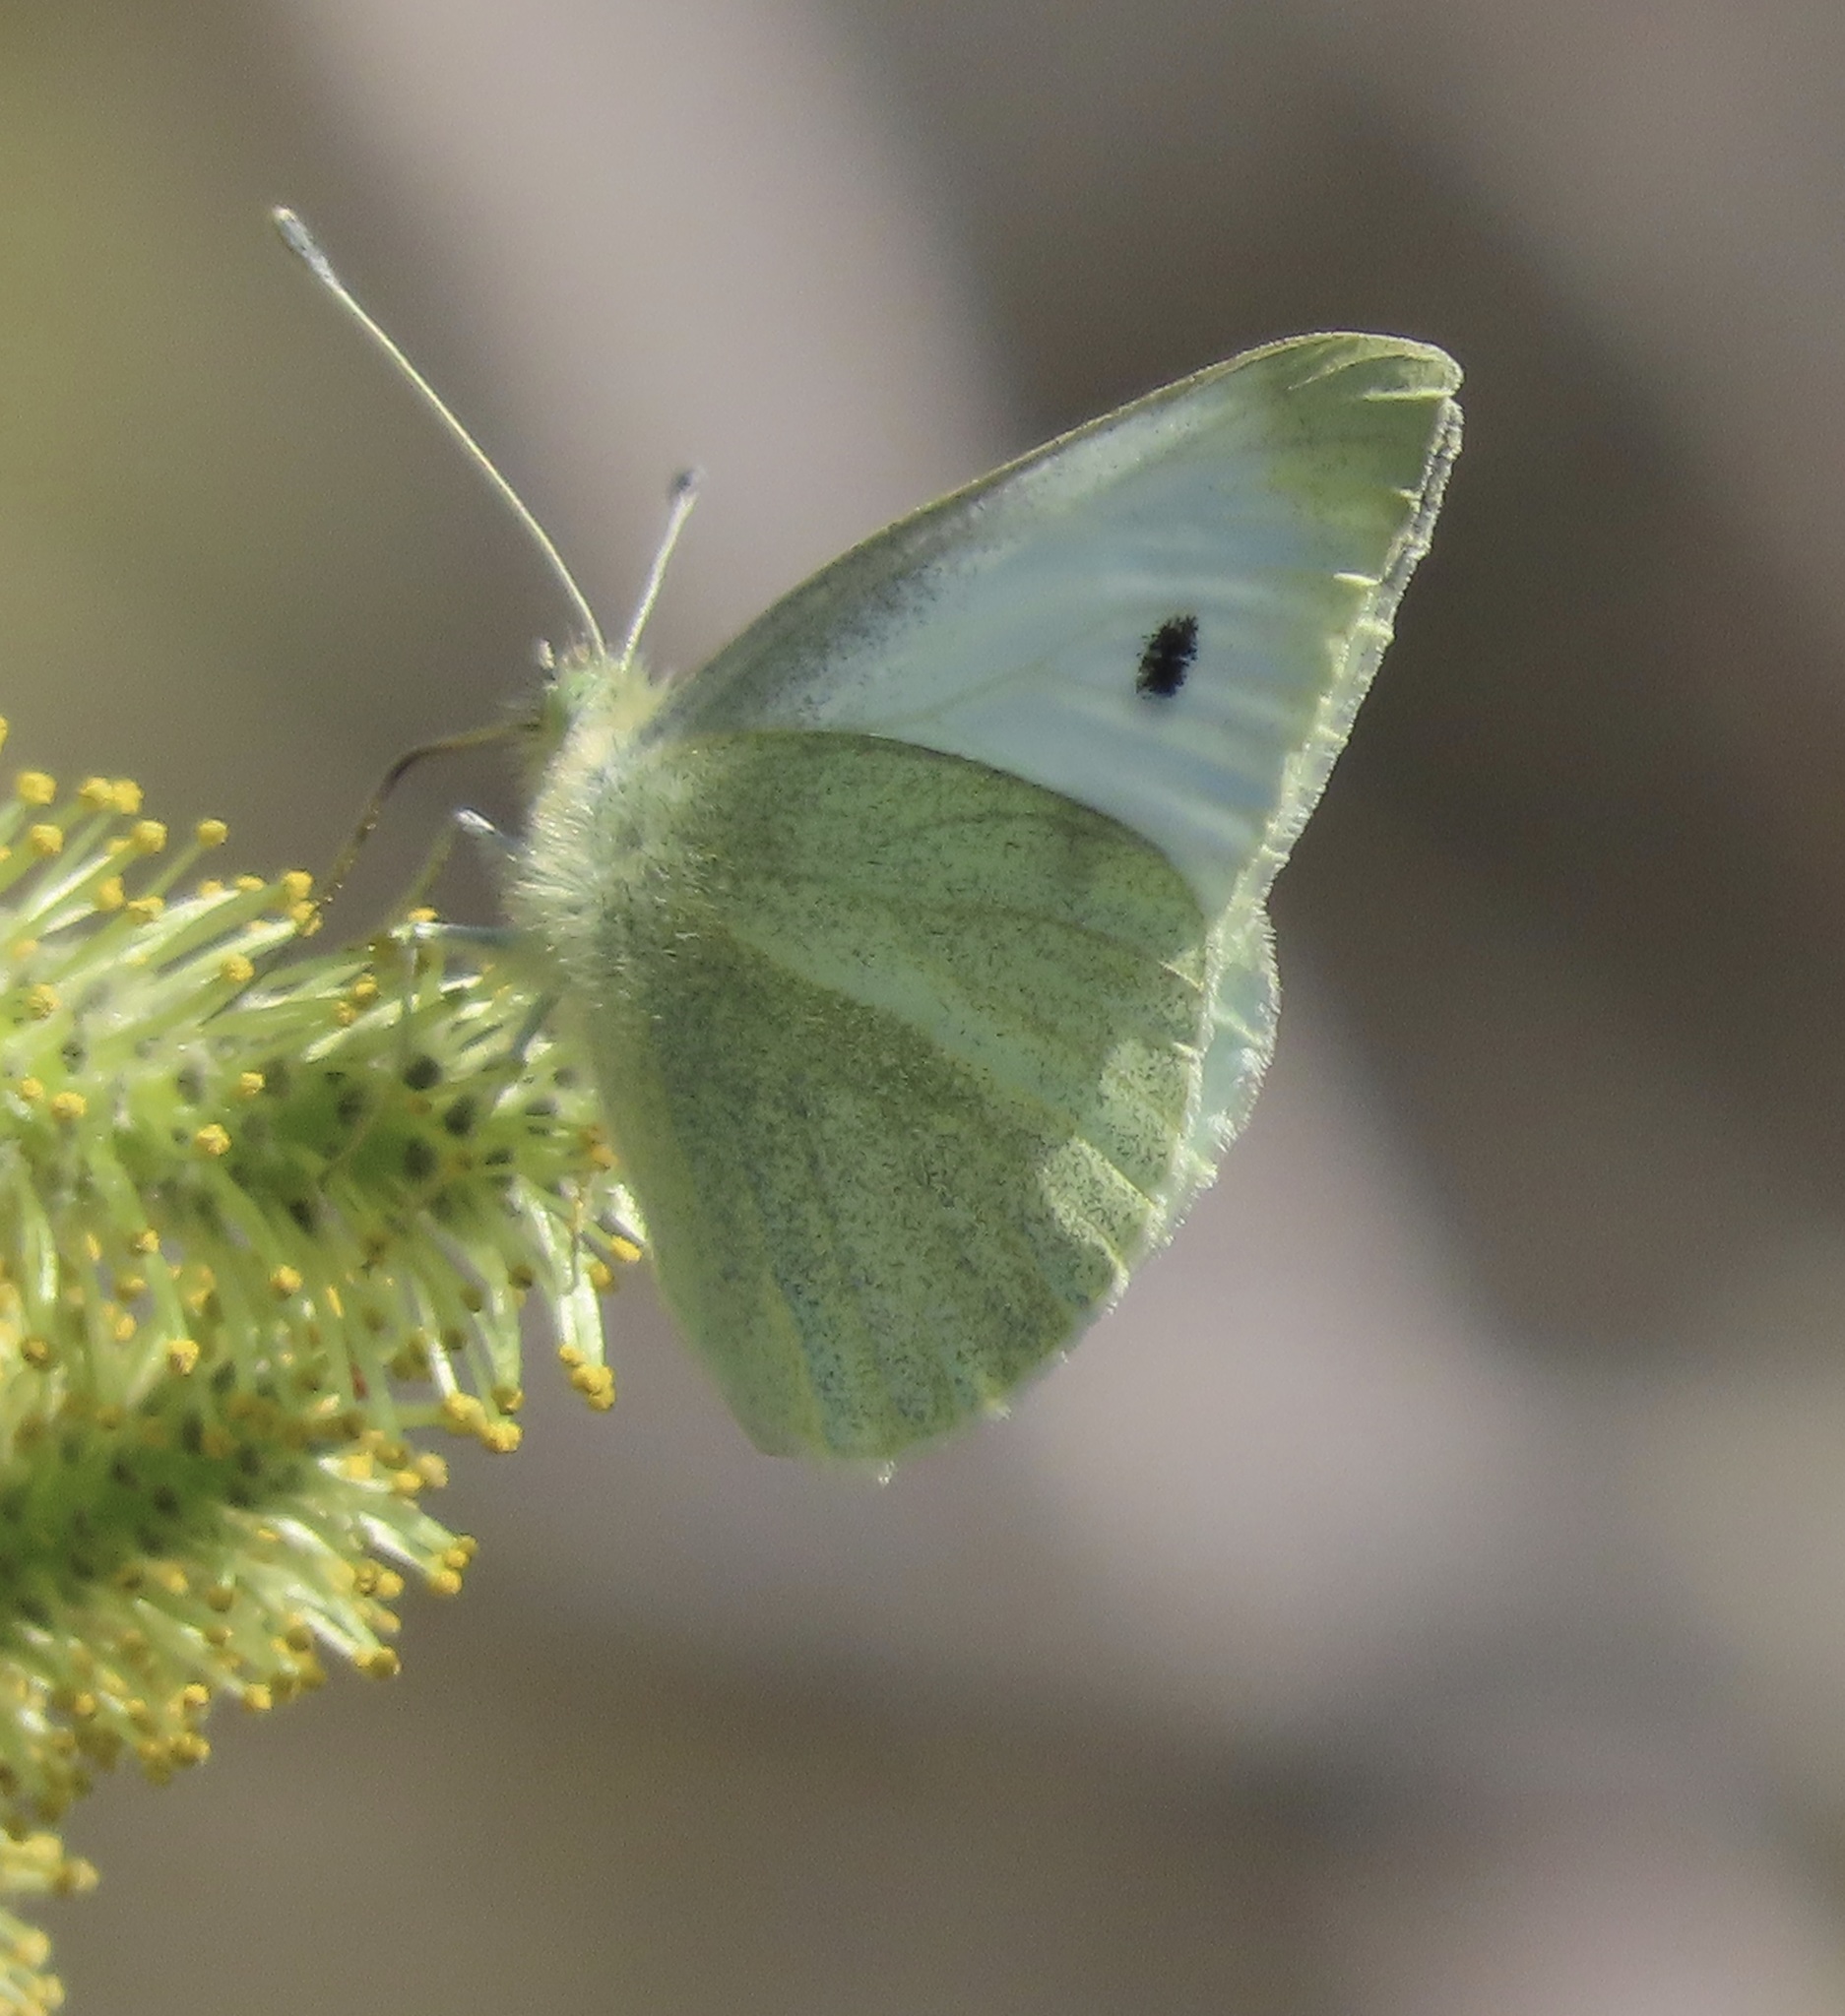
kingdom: Animalia
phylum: Arthropoda
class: Insecta
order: Lepidoptera
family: Pieridae
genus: Pieris
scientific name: Pieris rapae
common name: Small white
